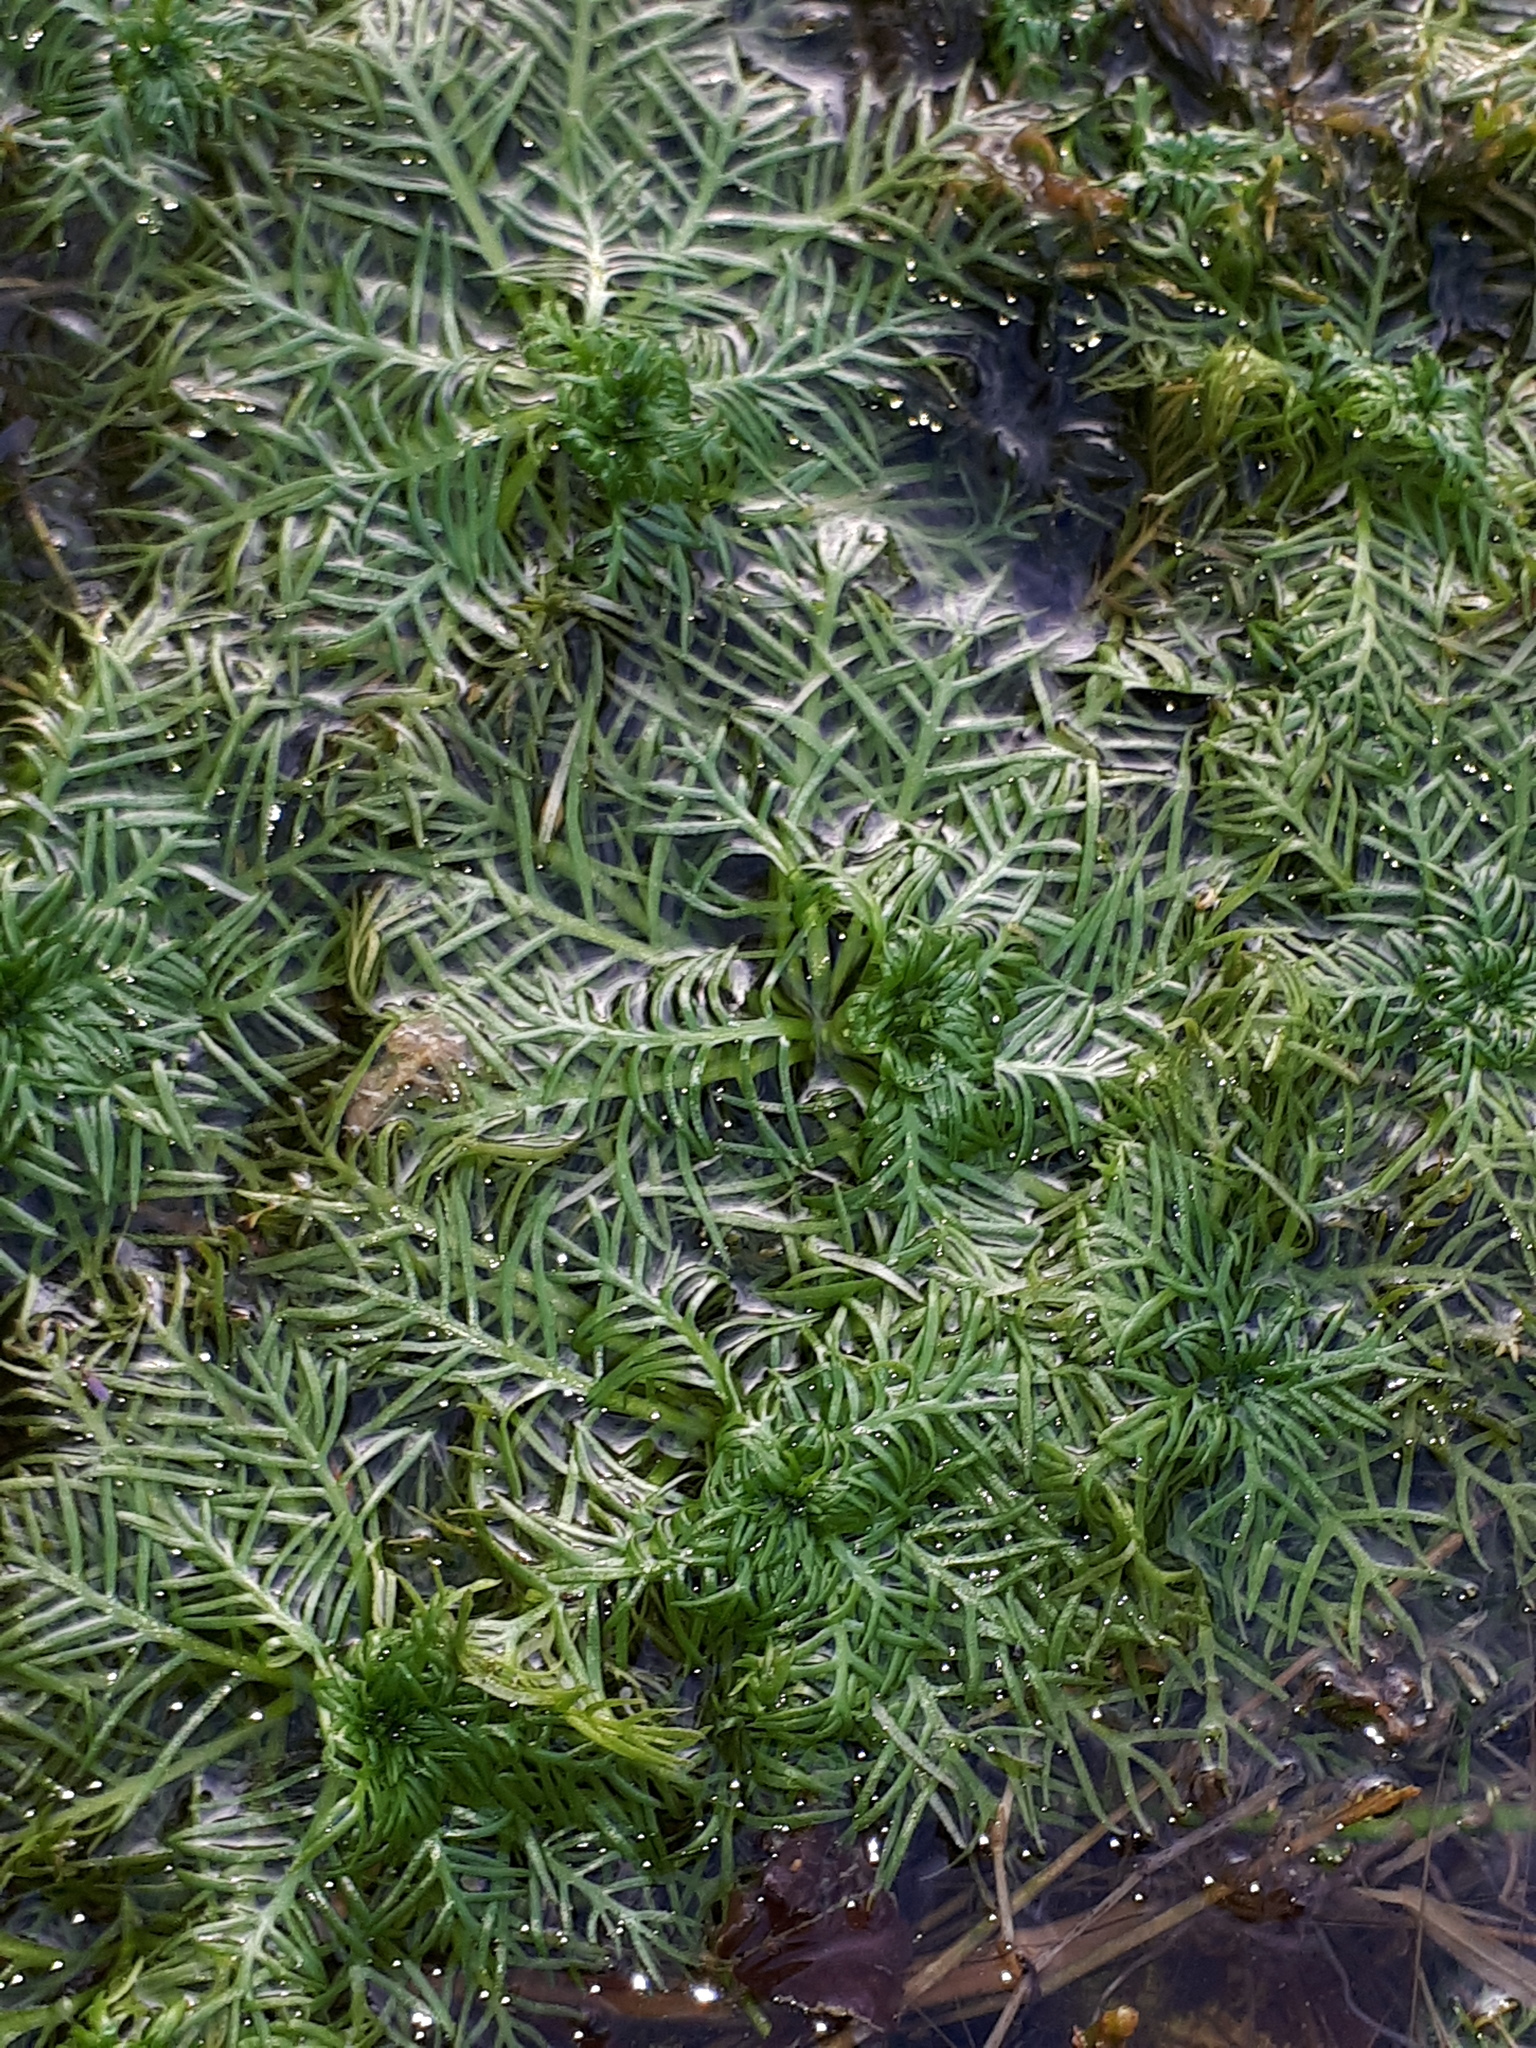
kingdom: Plantae
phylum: Tracheophyta
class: Magnoliopsida
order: Ericales
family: Primulaceae
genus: Hottonia
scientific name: Hottonia palustris
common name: Water-violet
